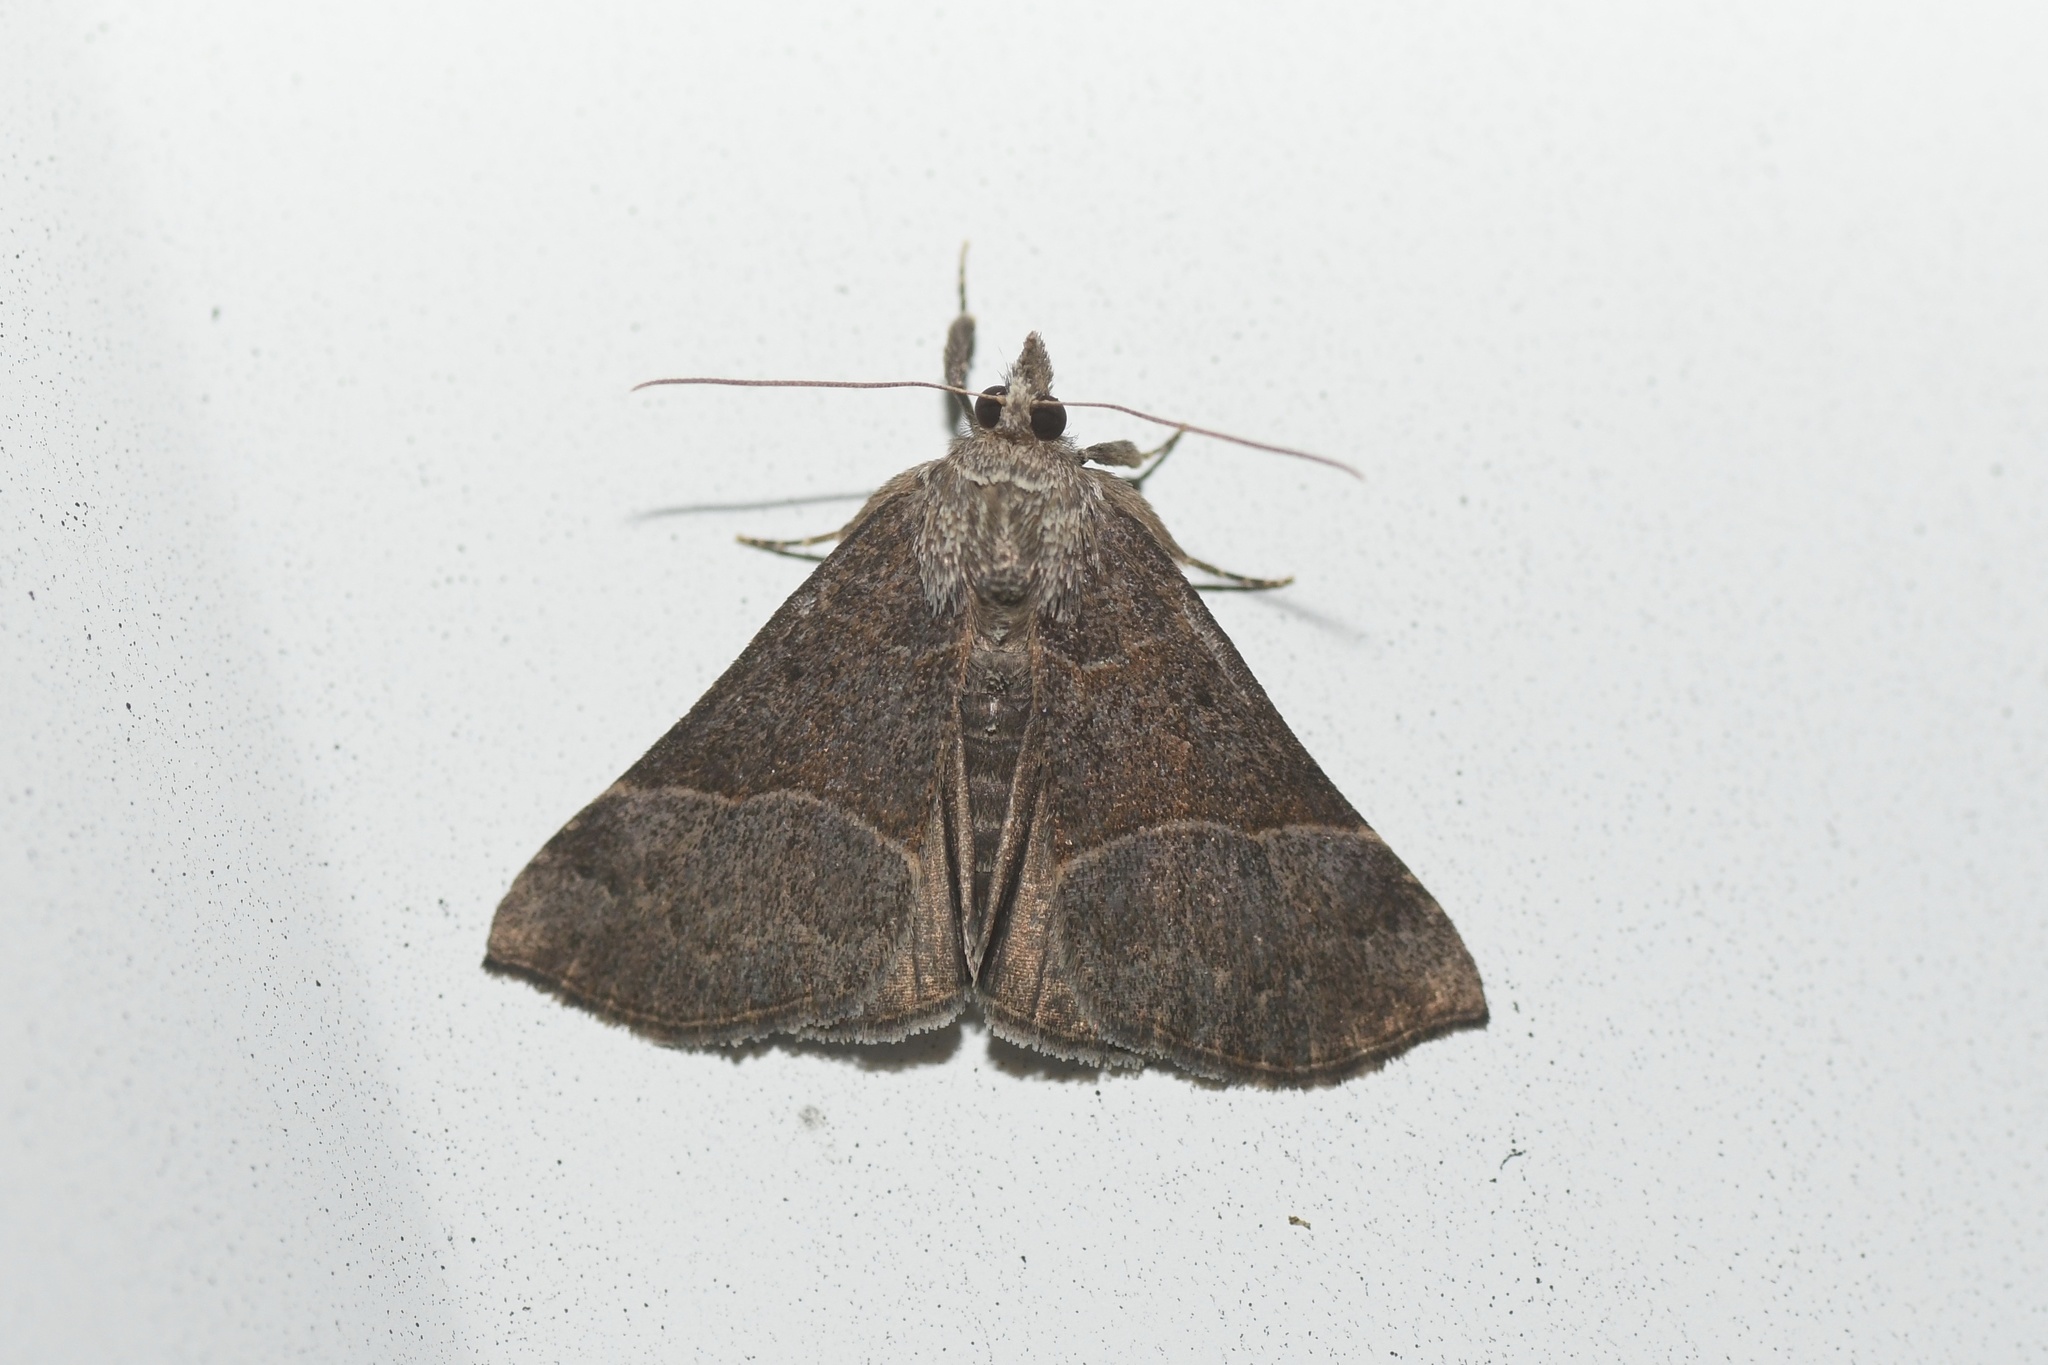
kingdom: Animalia
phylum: Arthropoda
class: Insecta
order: Lepidoptera
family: Erebidae
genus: Hypena
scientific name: Hypena deceptalis
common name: Deceptive snout
